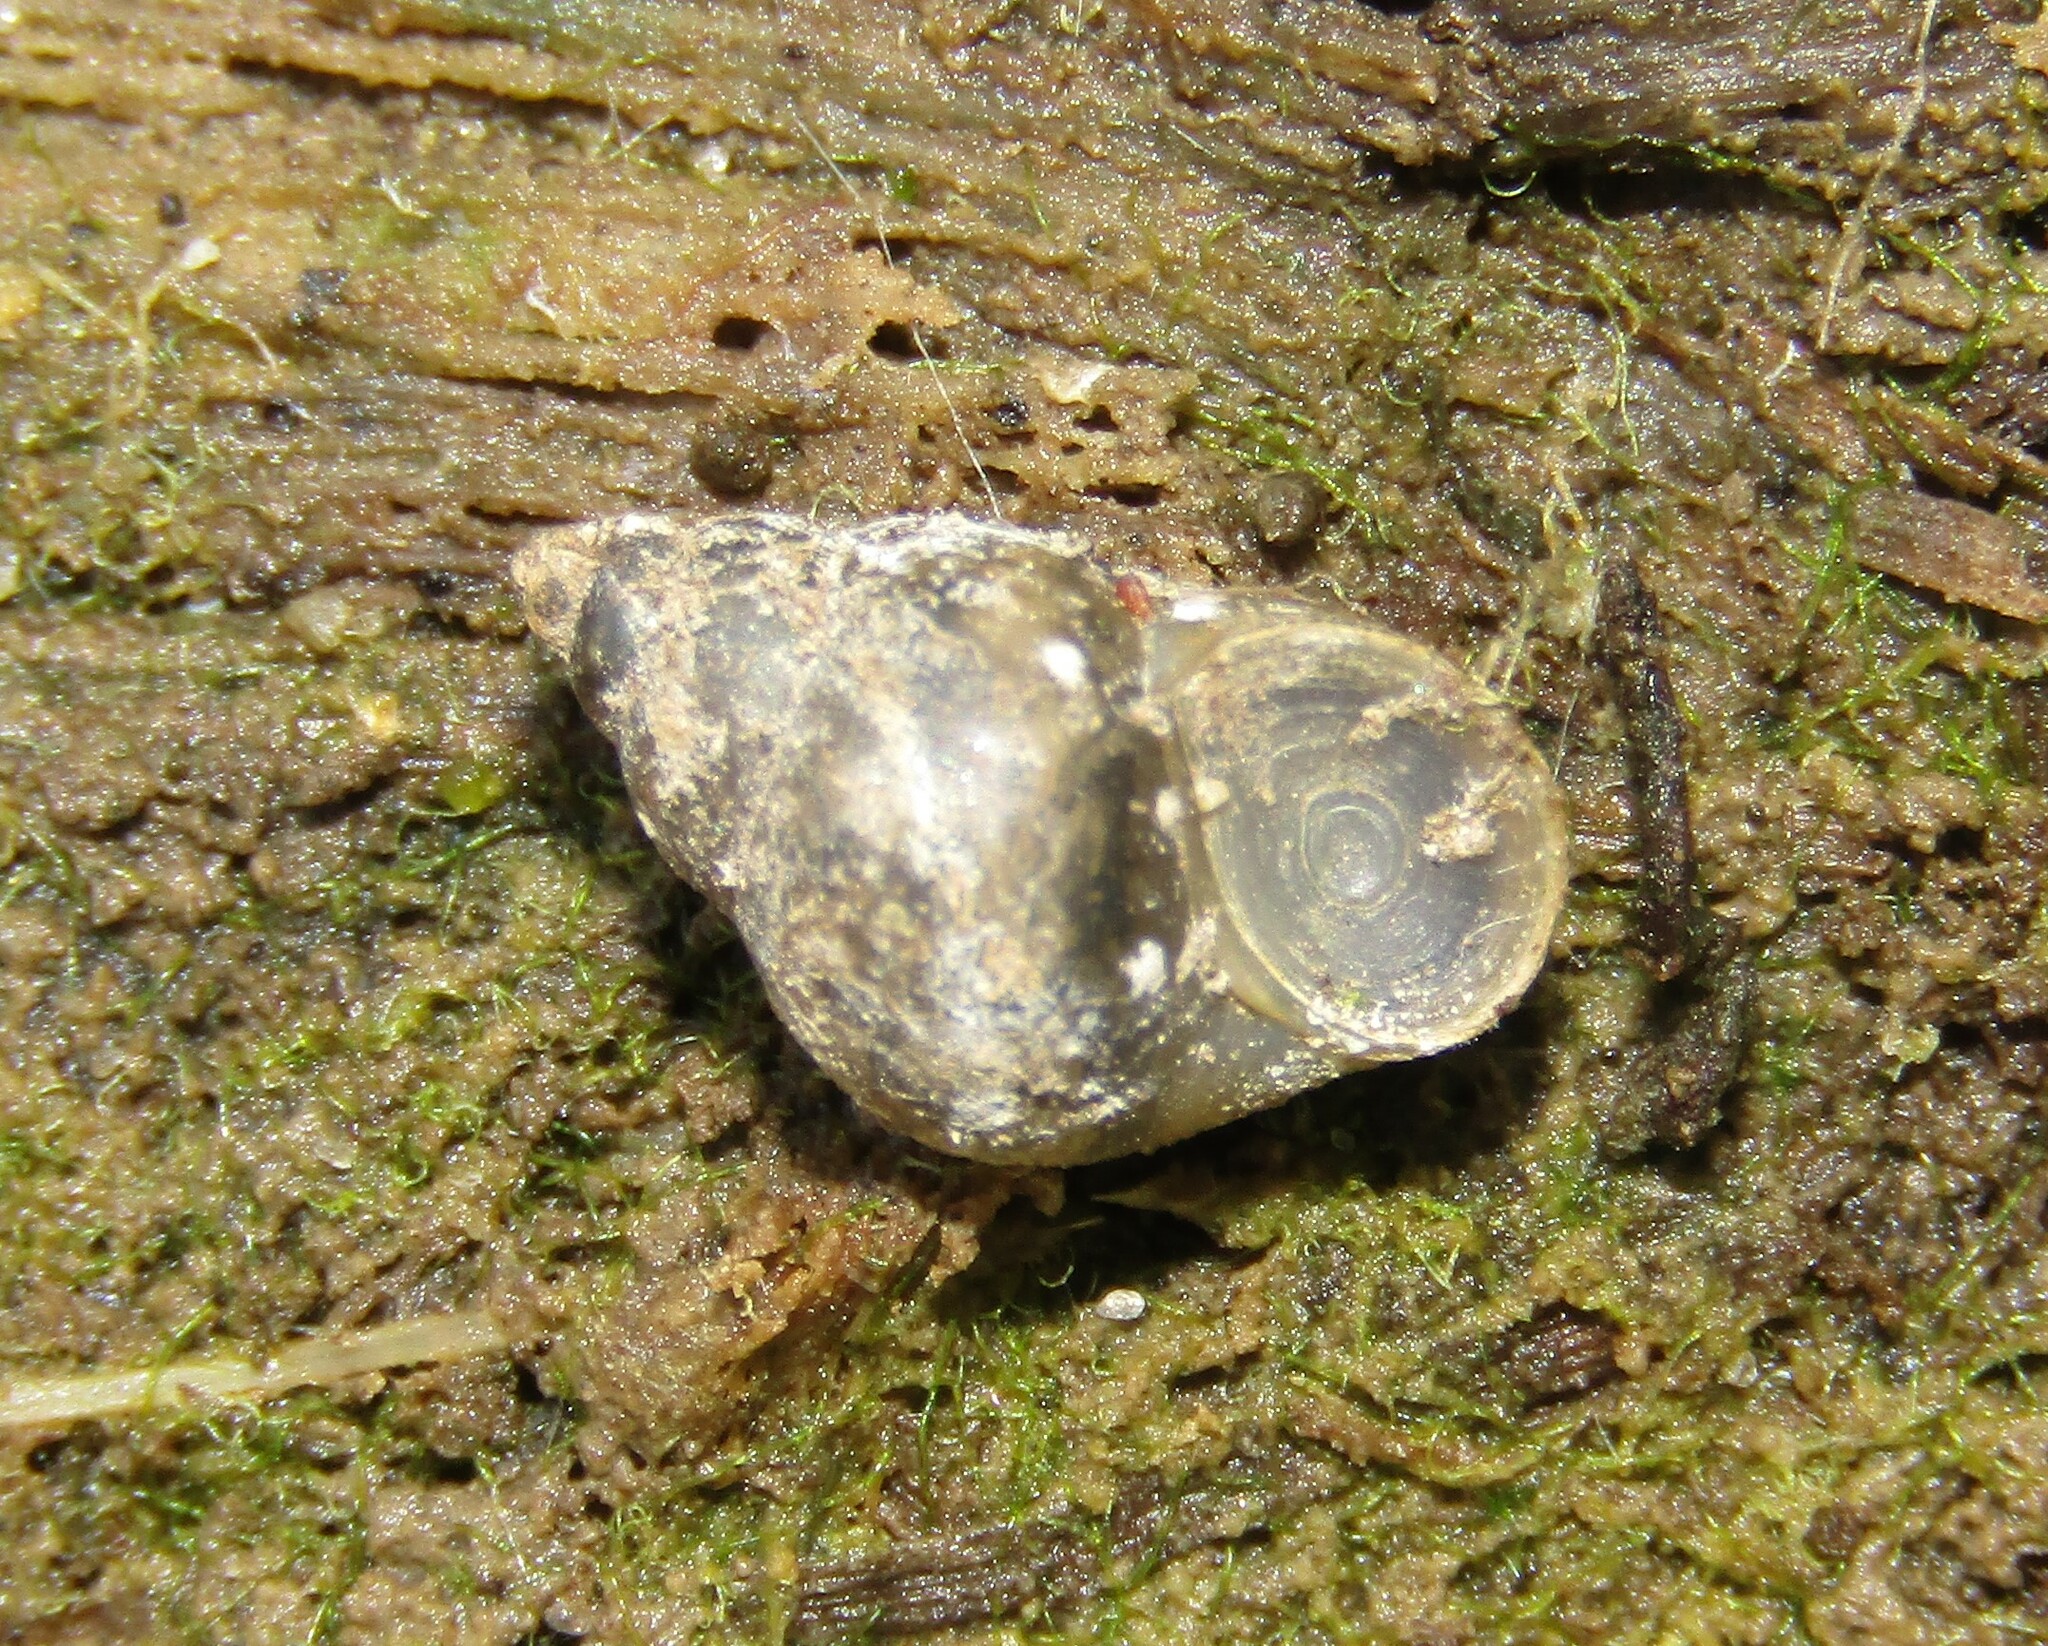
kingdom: Animalia
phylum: Mollusca
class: Gastropoda
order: Littorinimorpha
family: Bithyniidae
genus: Bithynia
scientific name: Bithynia tentaculata
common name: Common bithynia
